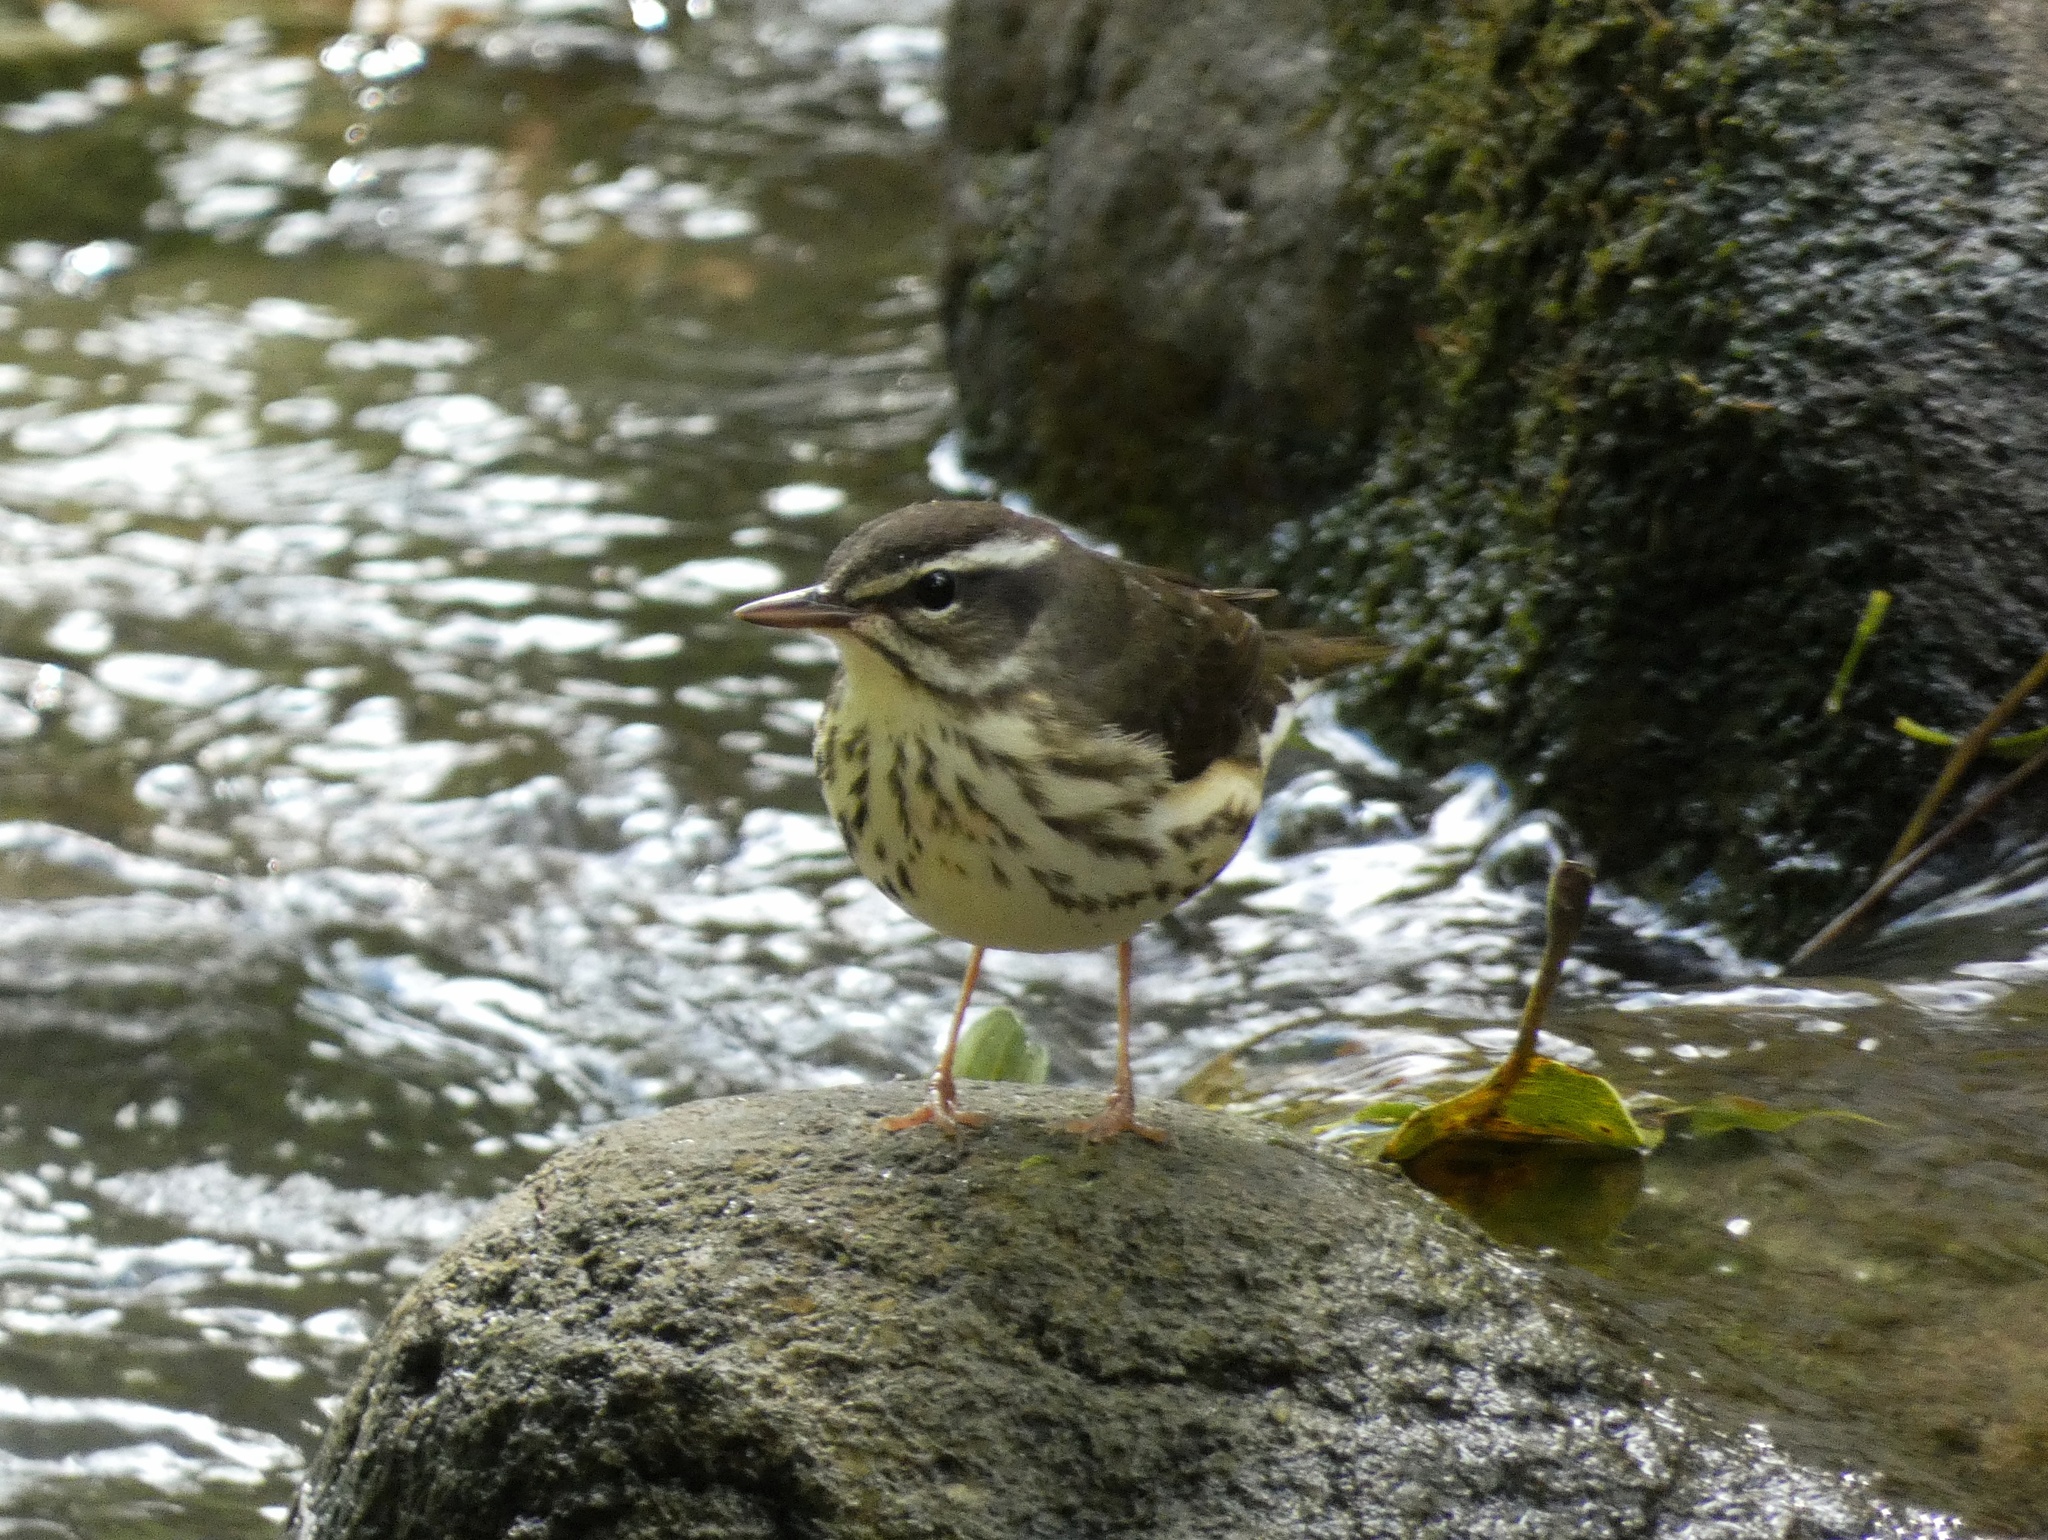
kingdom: Animalia
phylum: Chordata
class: Aves
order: Passeriformes
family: Parulidae
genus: Parkesia
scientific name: Parkesia motacilla
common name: Louisiana waterthrush
